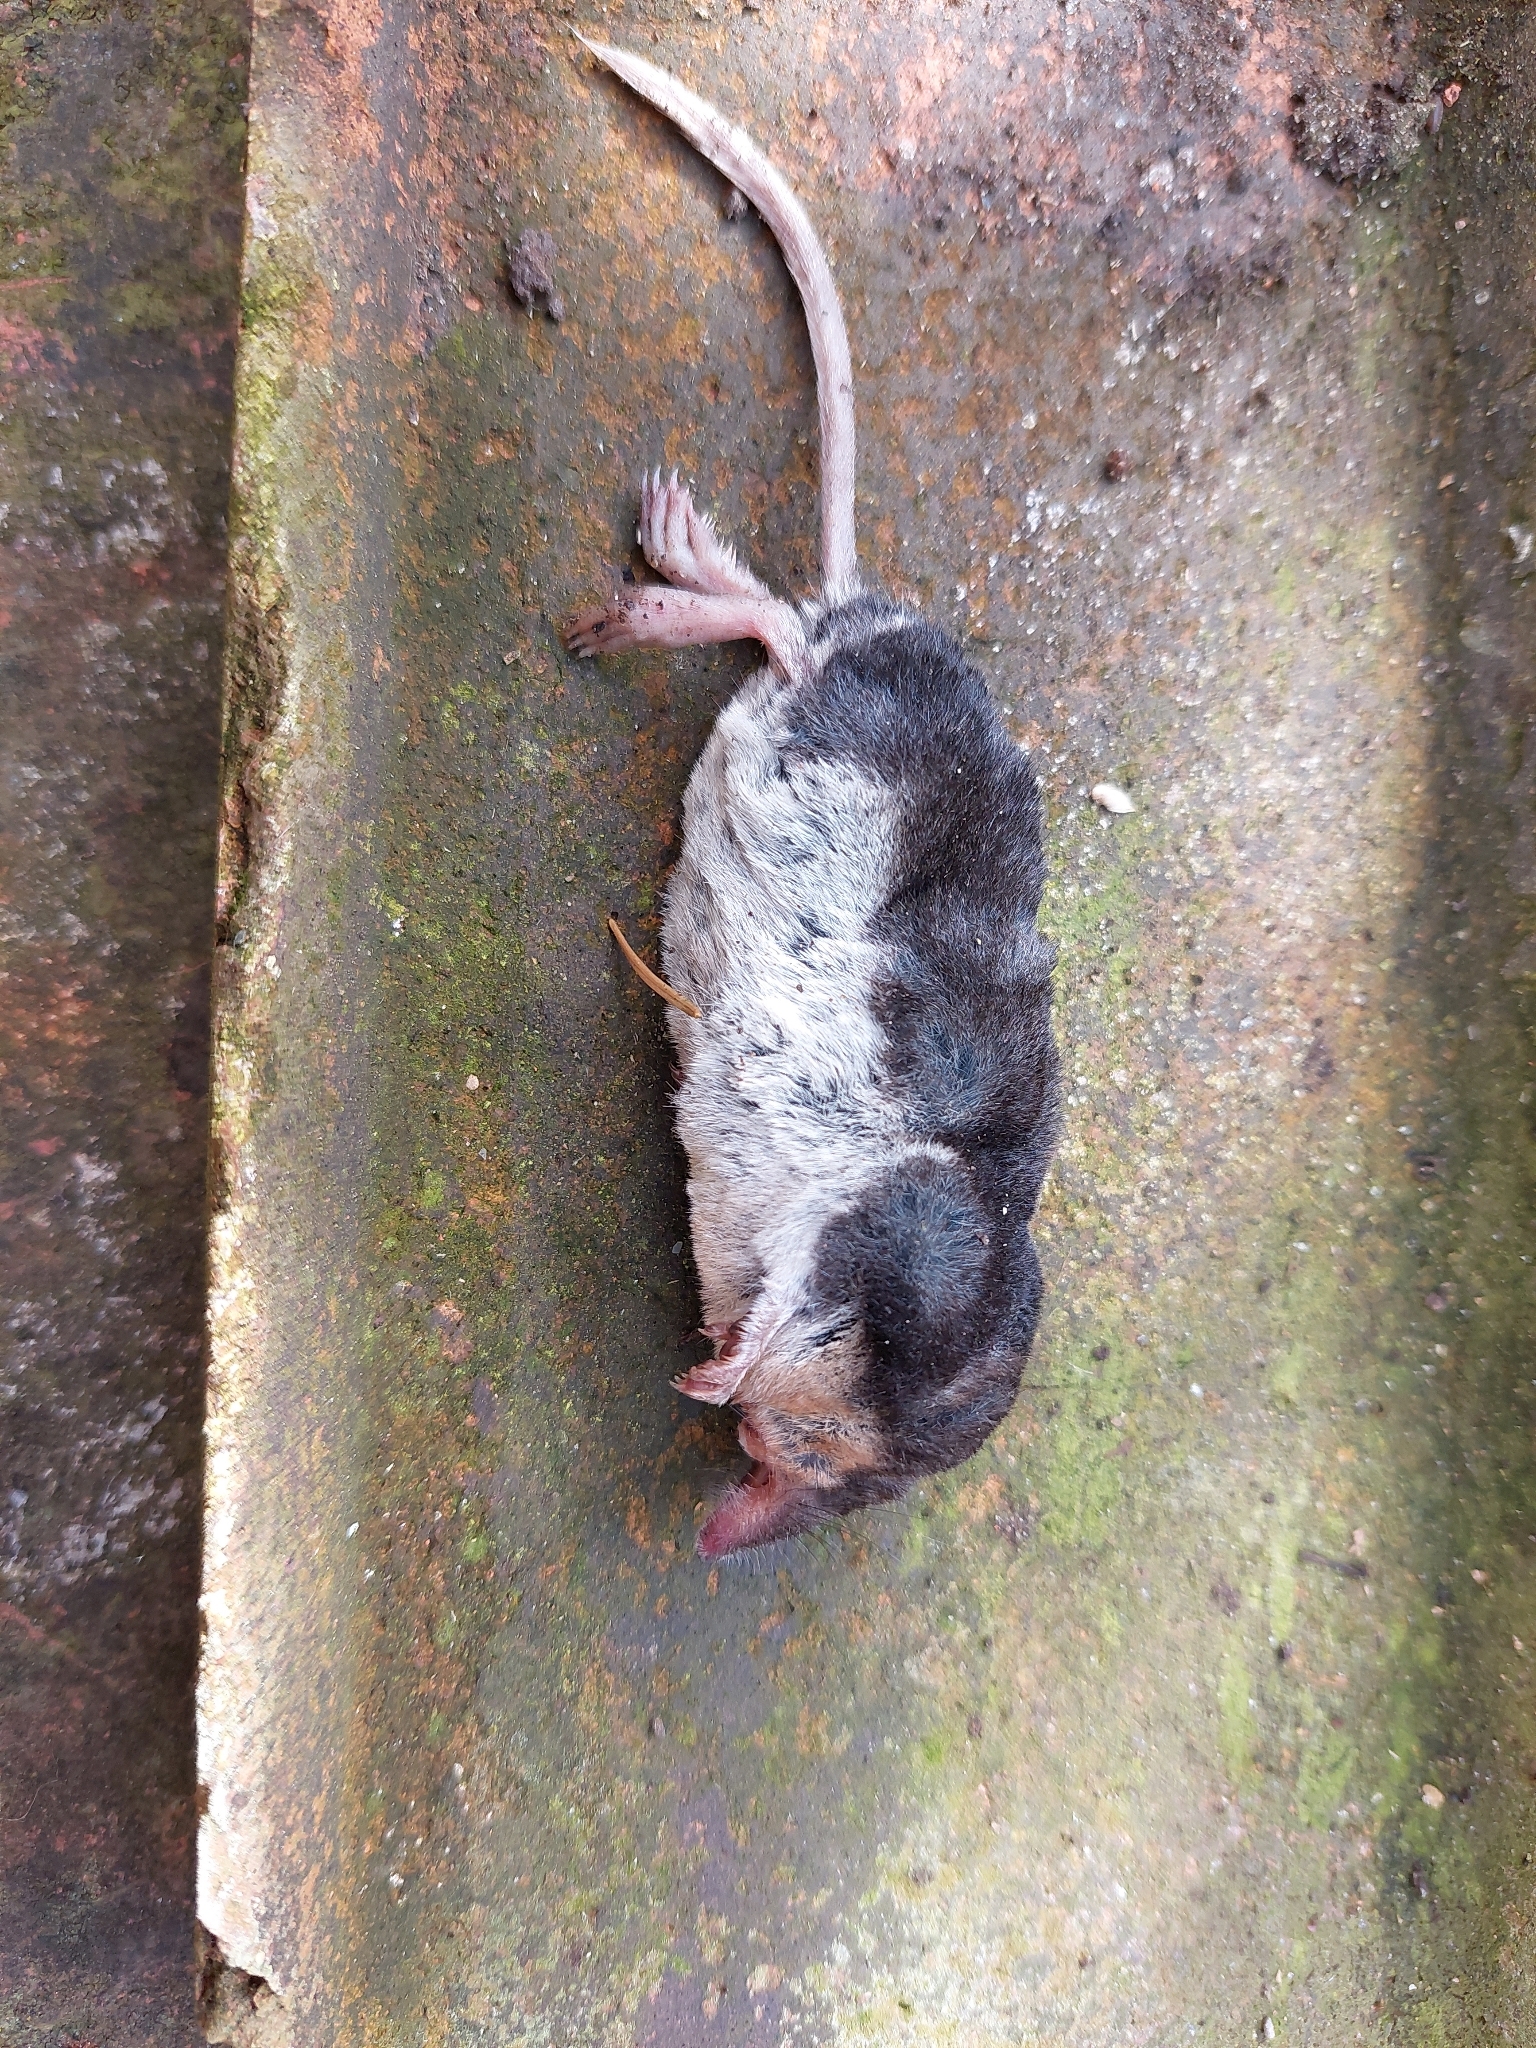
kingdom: Animalia
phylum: Chordata
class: Mammalia
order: Soricomorpha
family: Soricidae
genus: Neomys
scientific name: Neomys fodiens
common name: Eurasian water shrew
